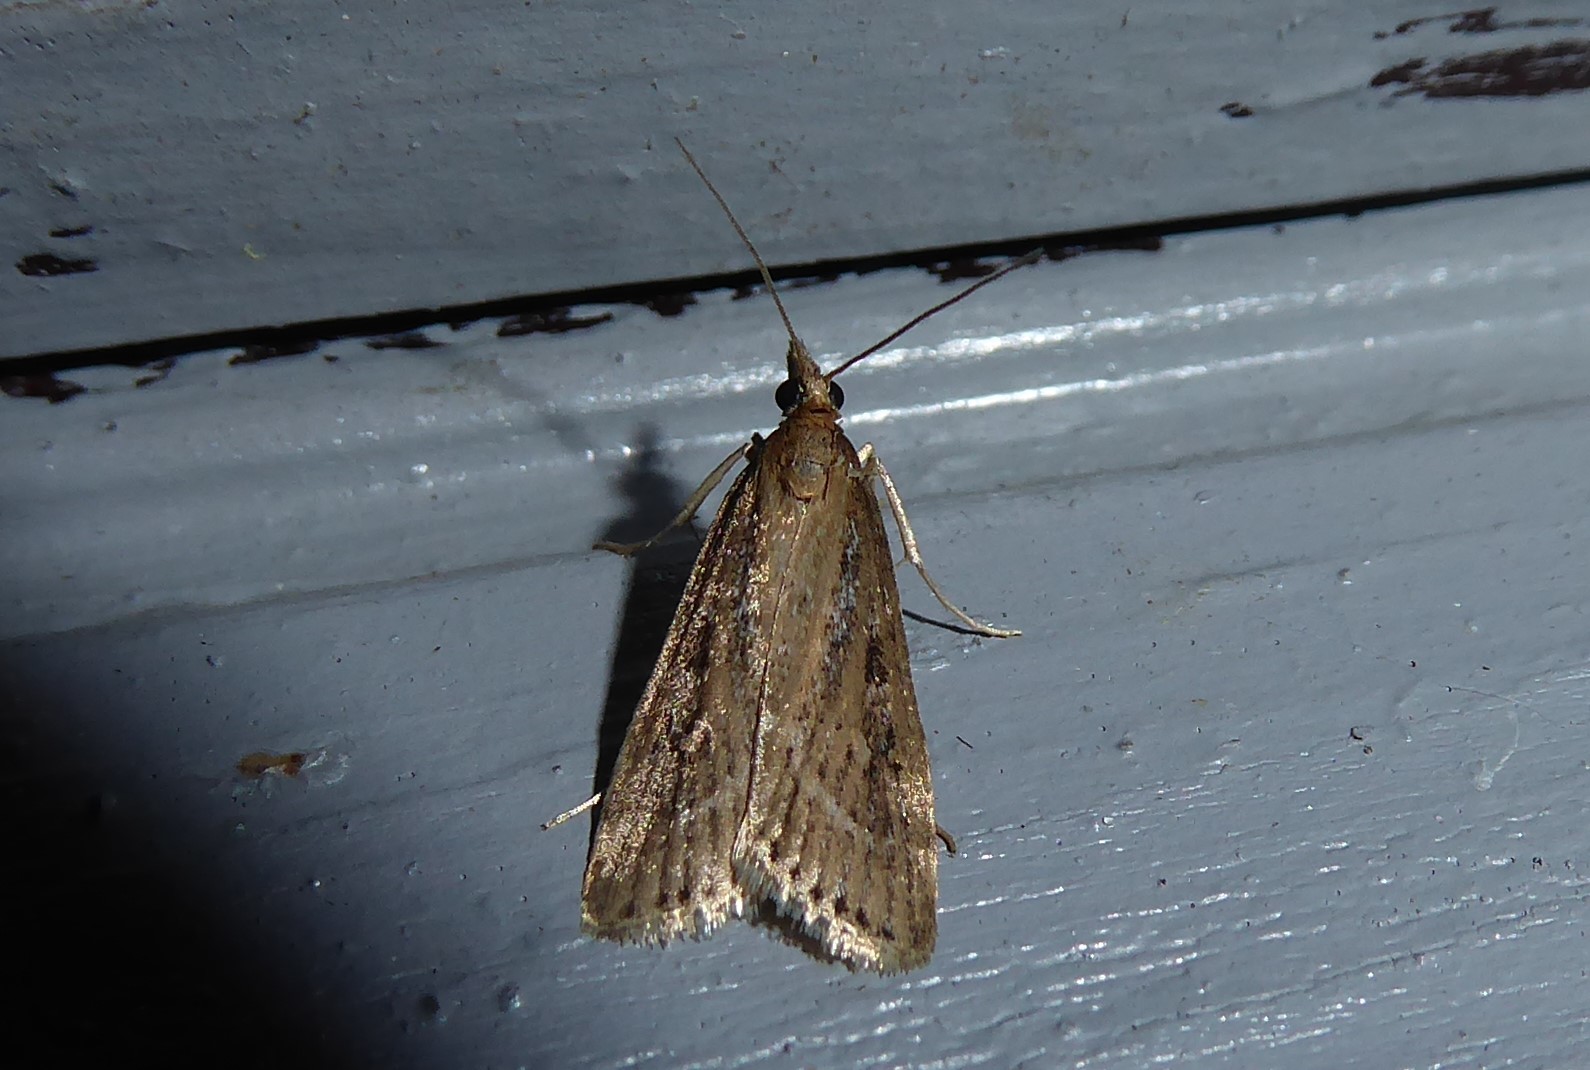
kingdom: Animalia
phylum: Arthropoda
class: Insecta
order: Lepidoptera
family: Crambidae
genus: Eudonia
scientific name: Eudonia octophora
